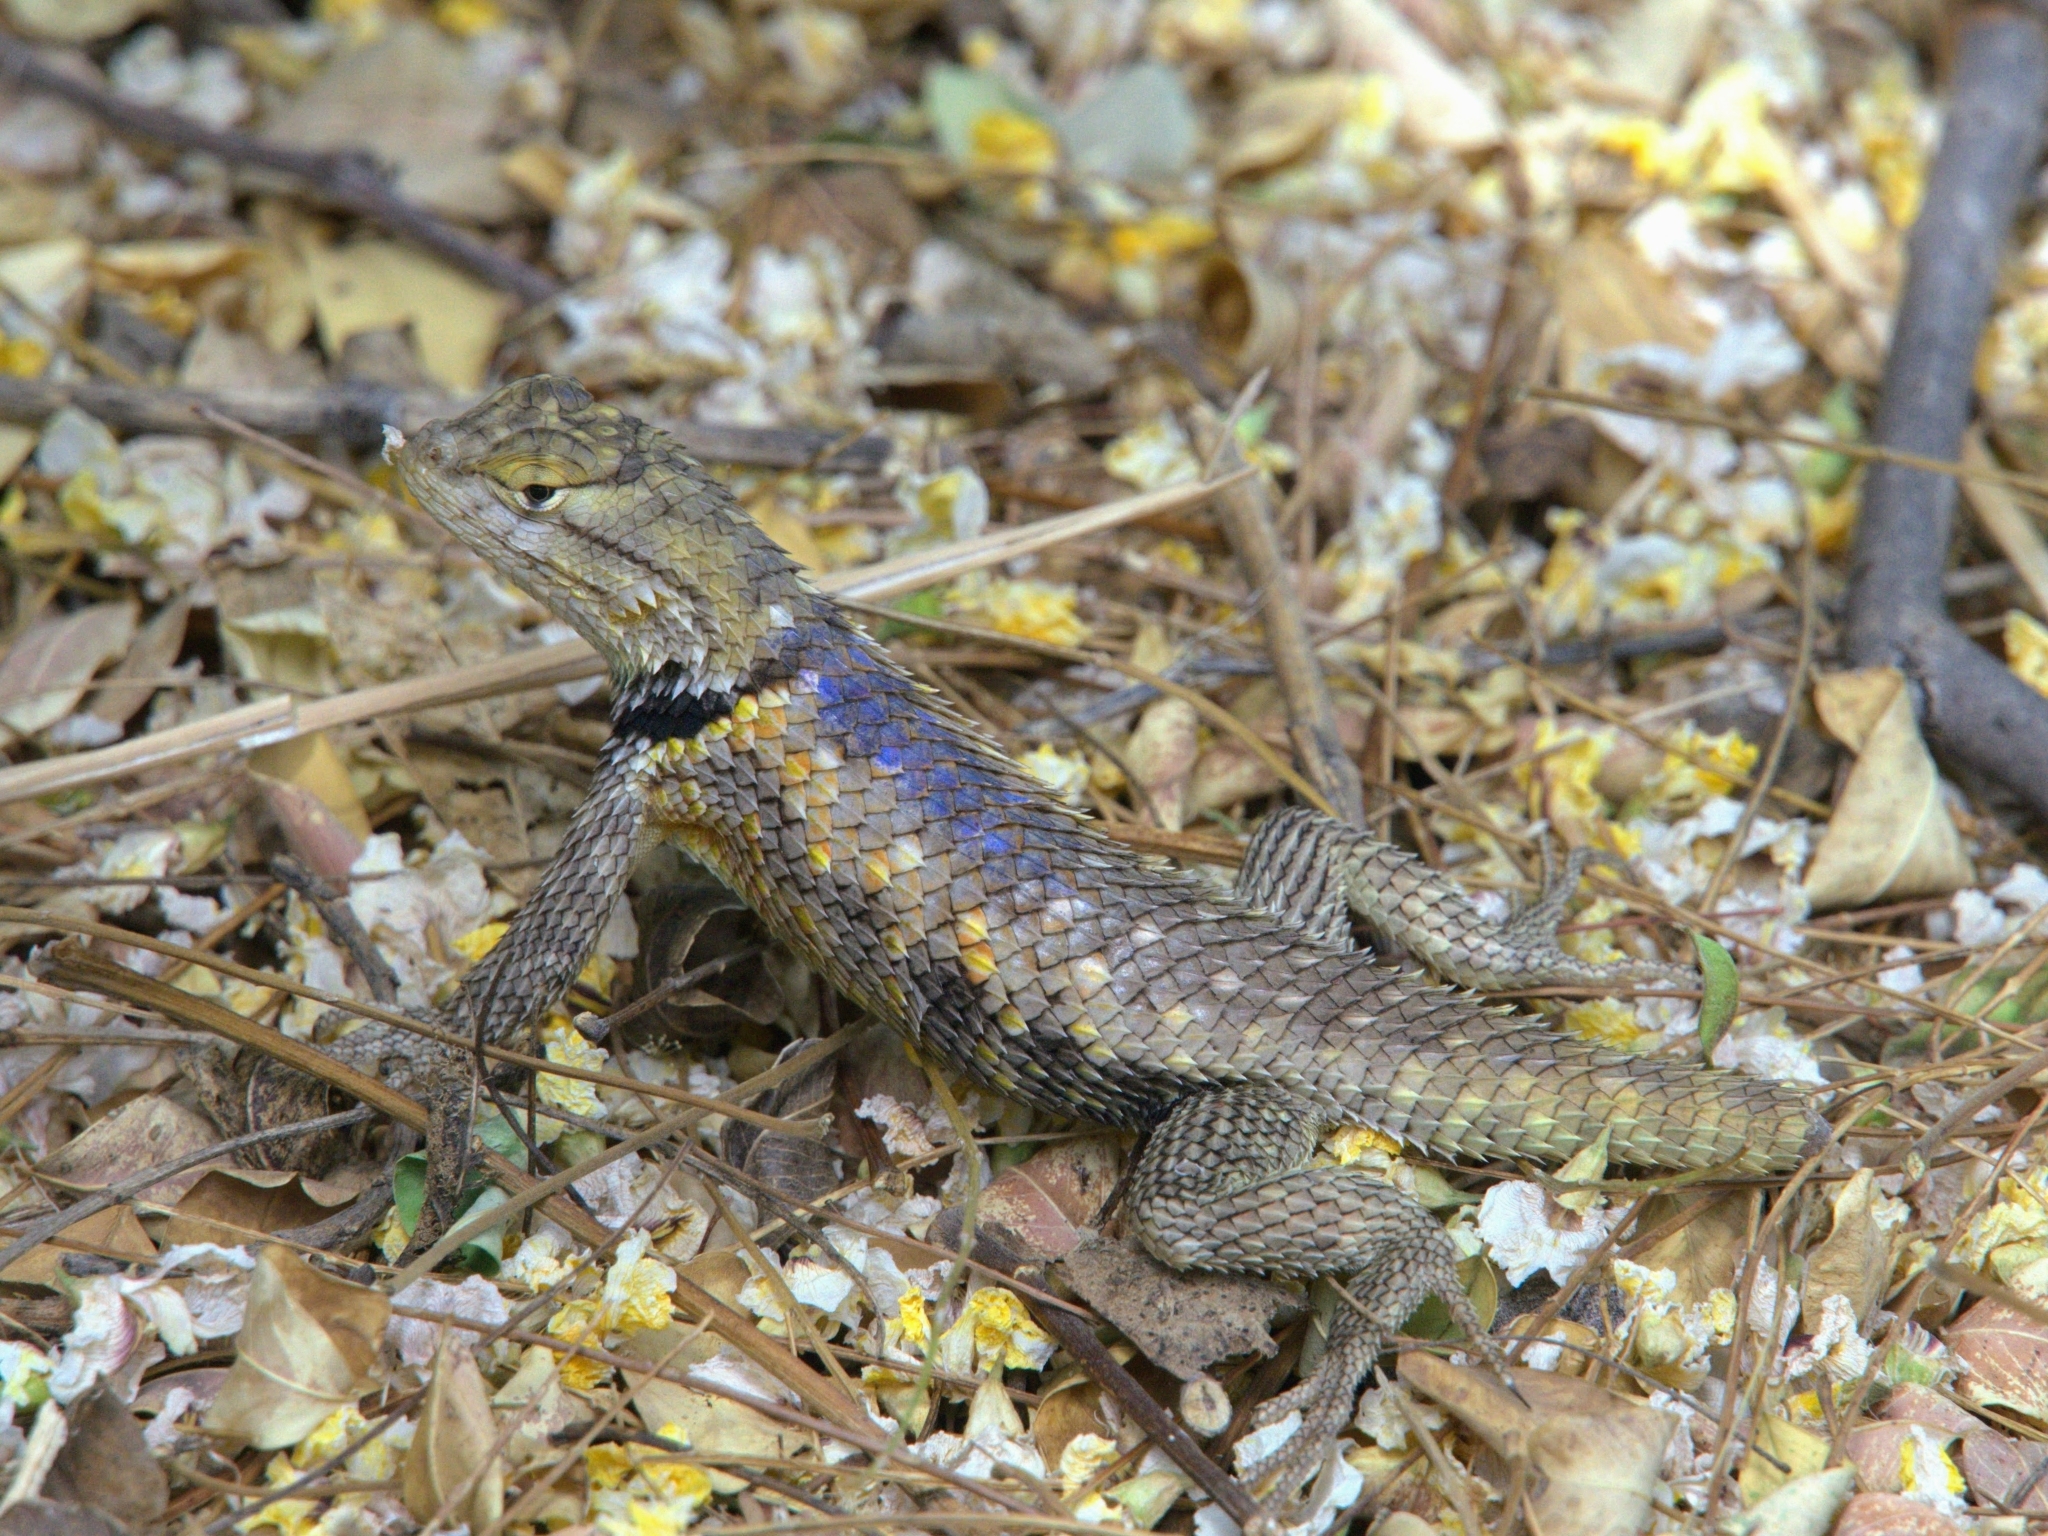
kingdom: Animalia
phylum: Chordata
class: Squamata
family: Phrynosomatidae
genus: Sceloporus
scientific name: Sceloporus magister
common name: Desert spiny lizard
